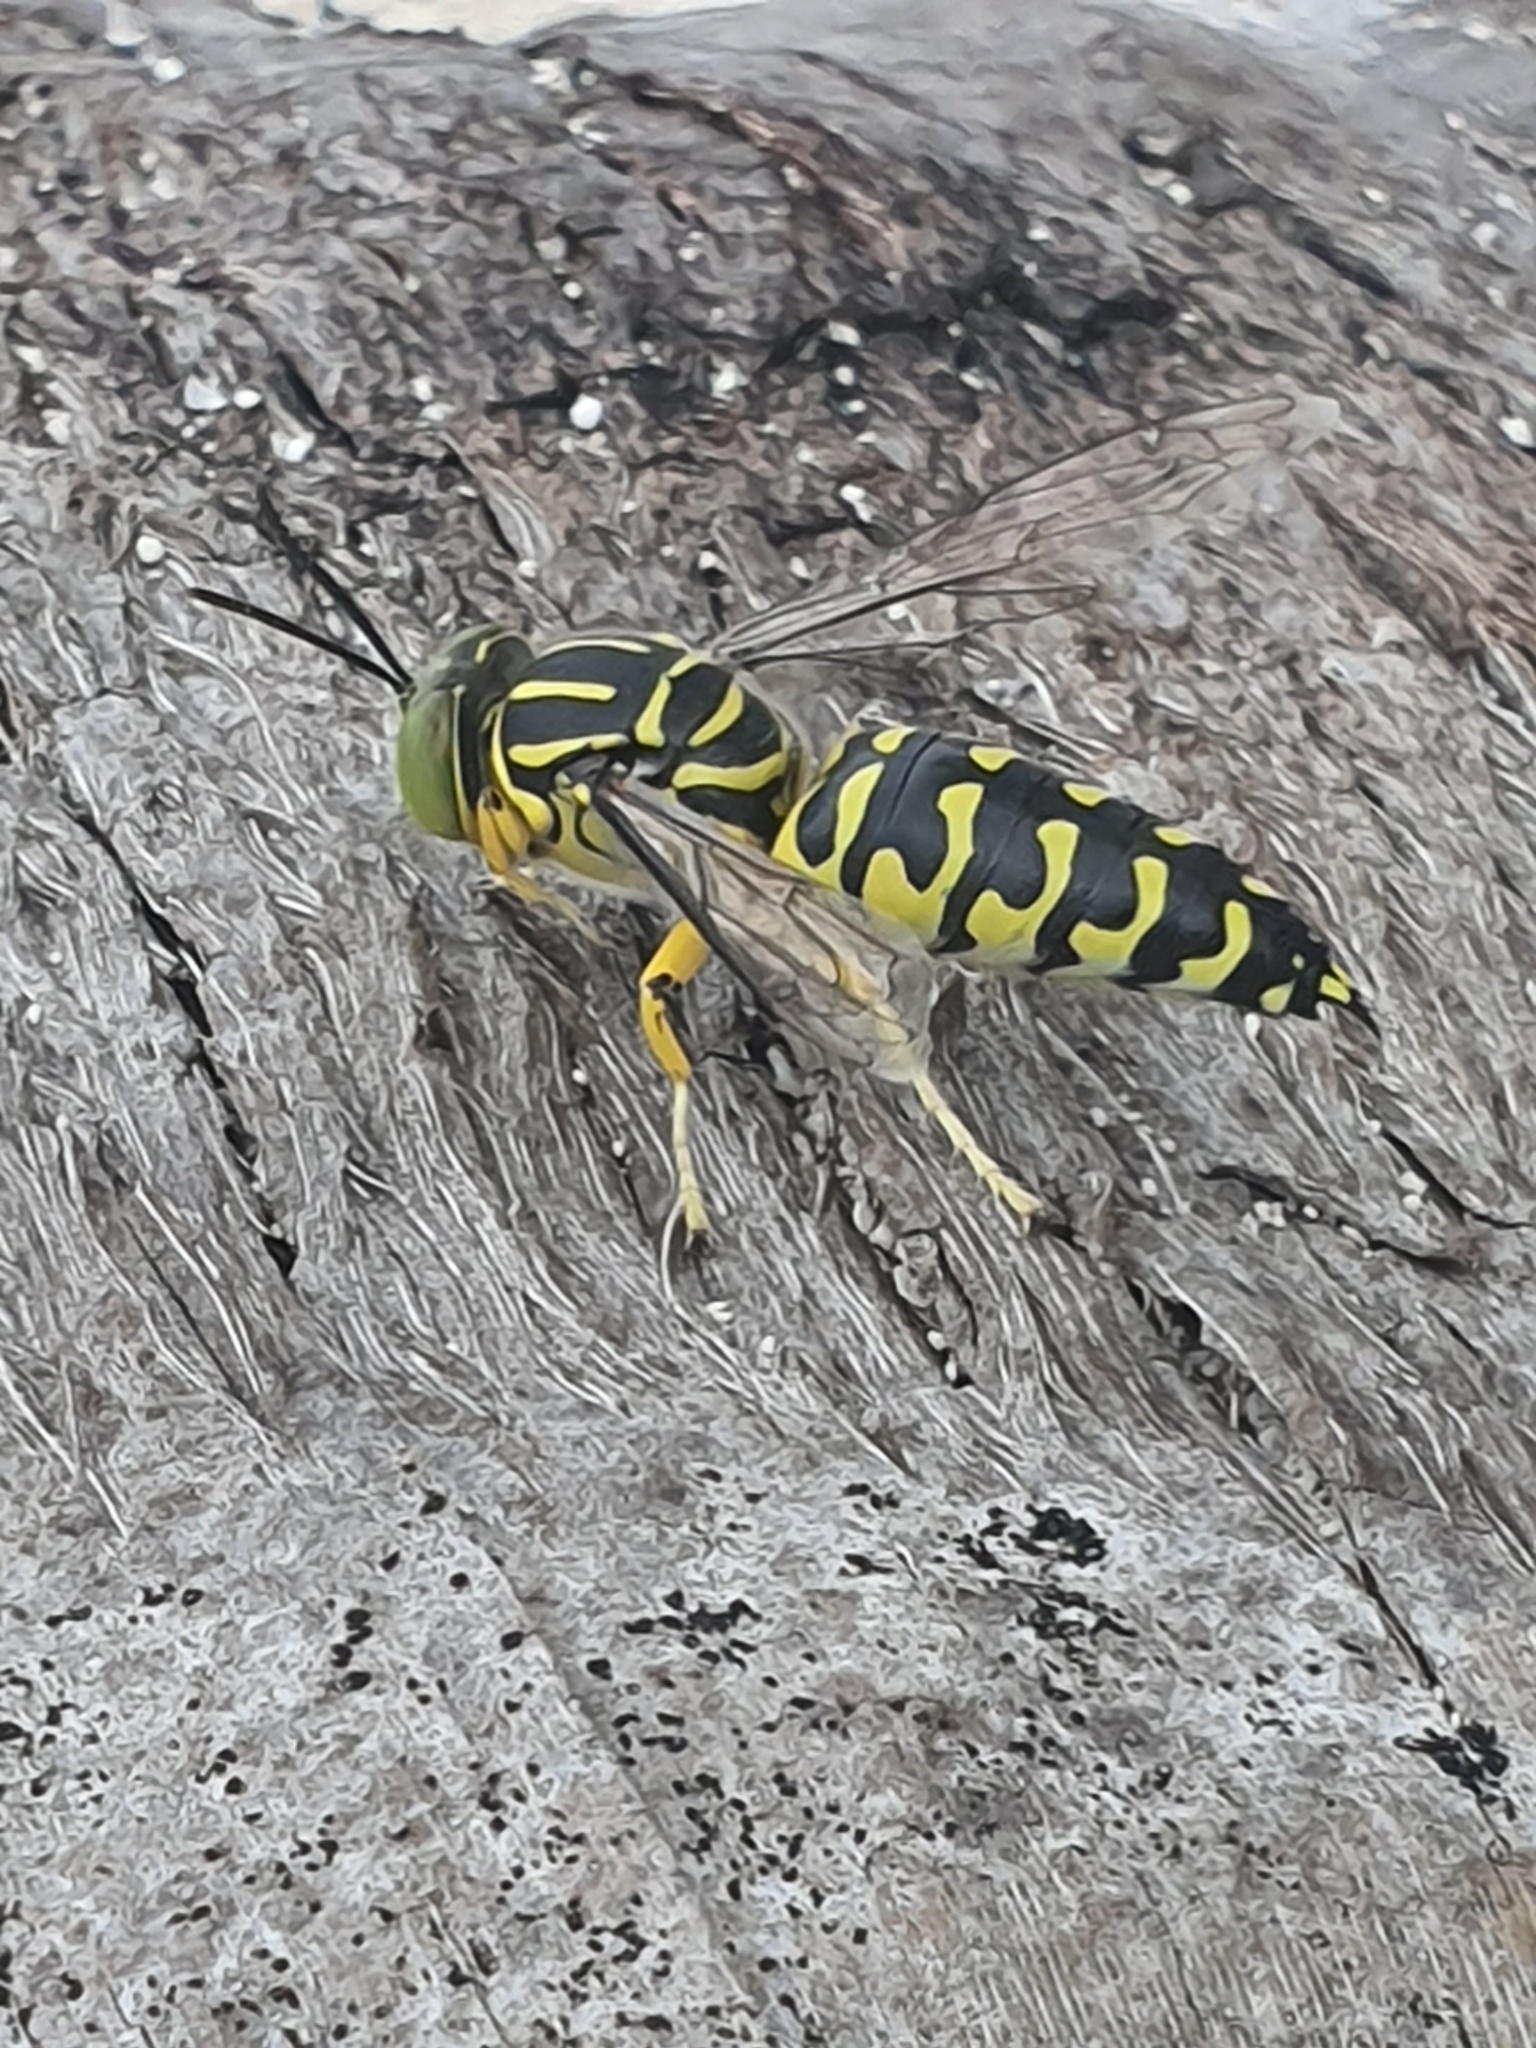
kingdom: Animalia
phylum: Arthropoda
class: Insecta
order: Hymenoptera
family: Crabronidae
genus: Stictia
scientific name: Stictia signata
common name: Sand wasp
